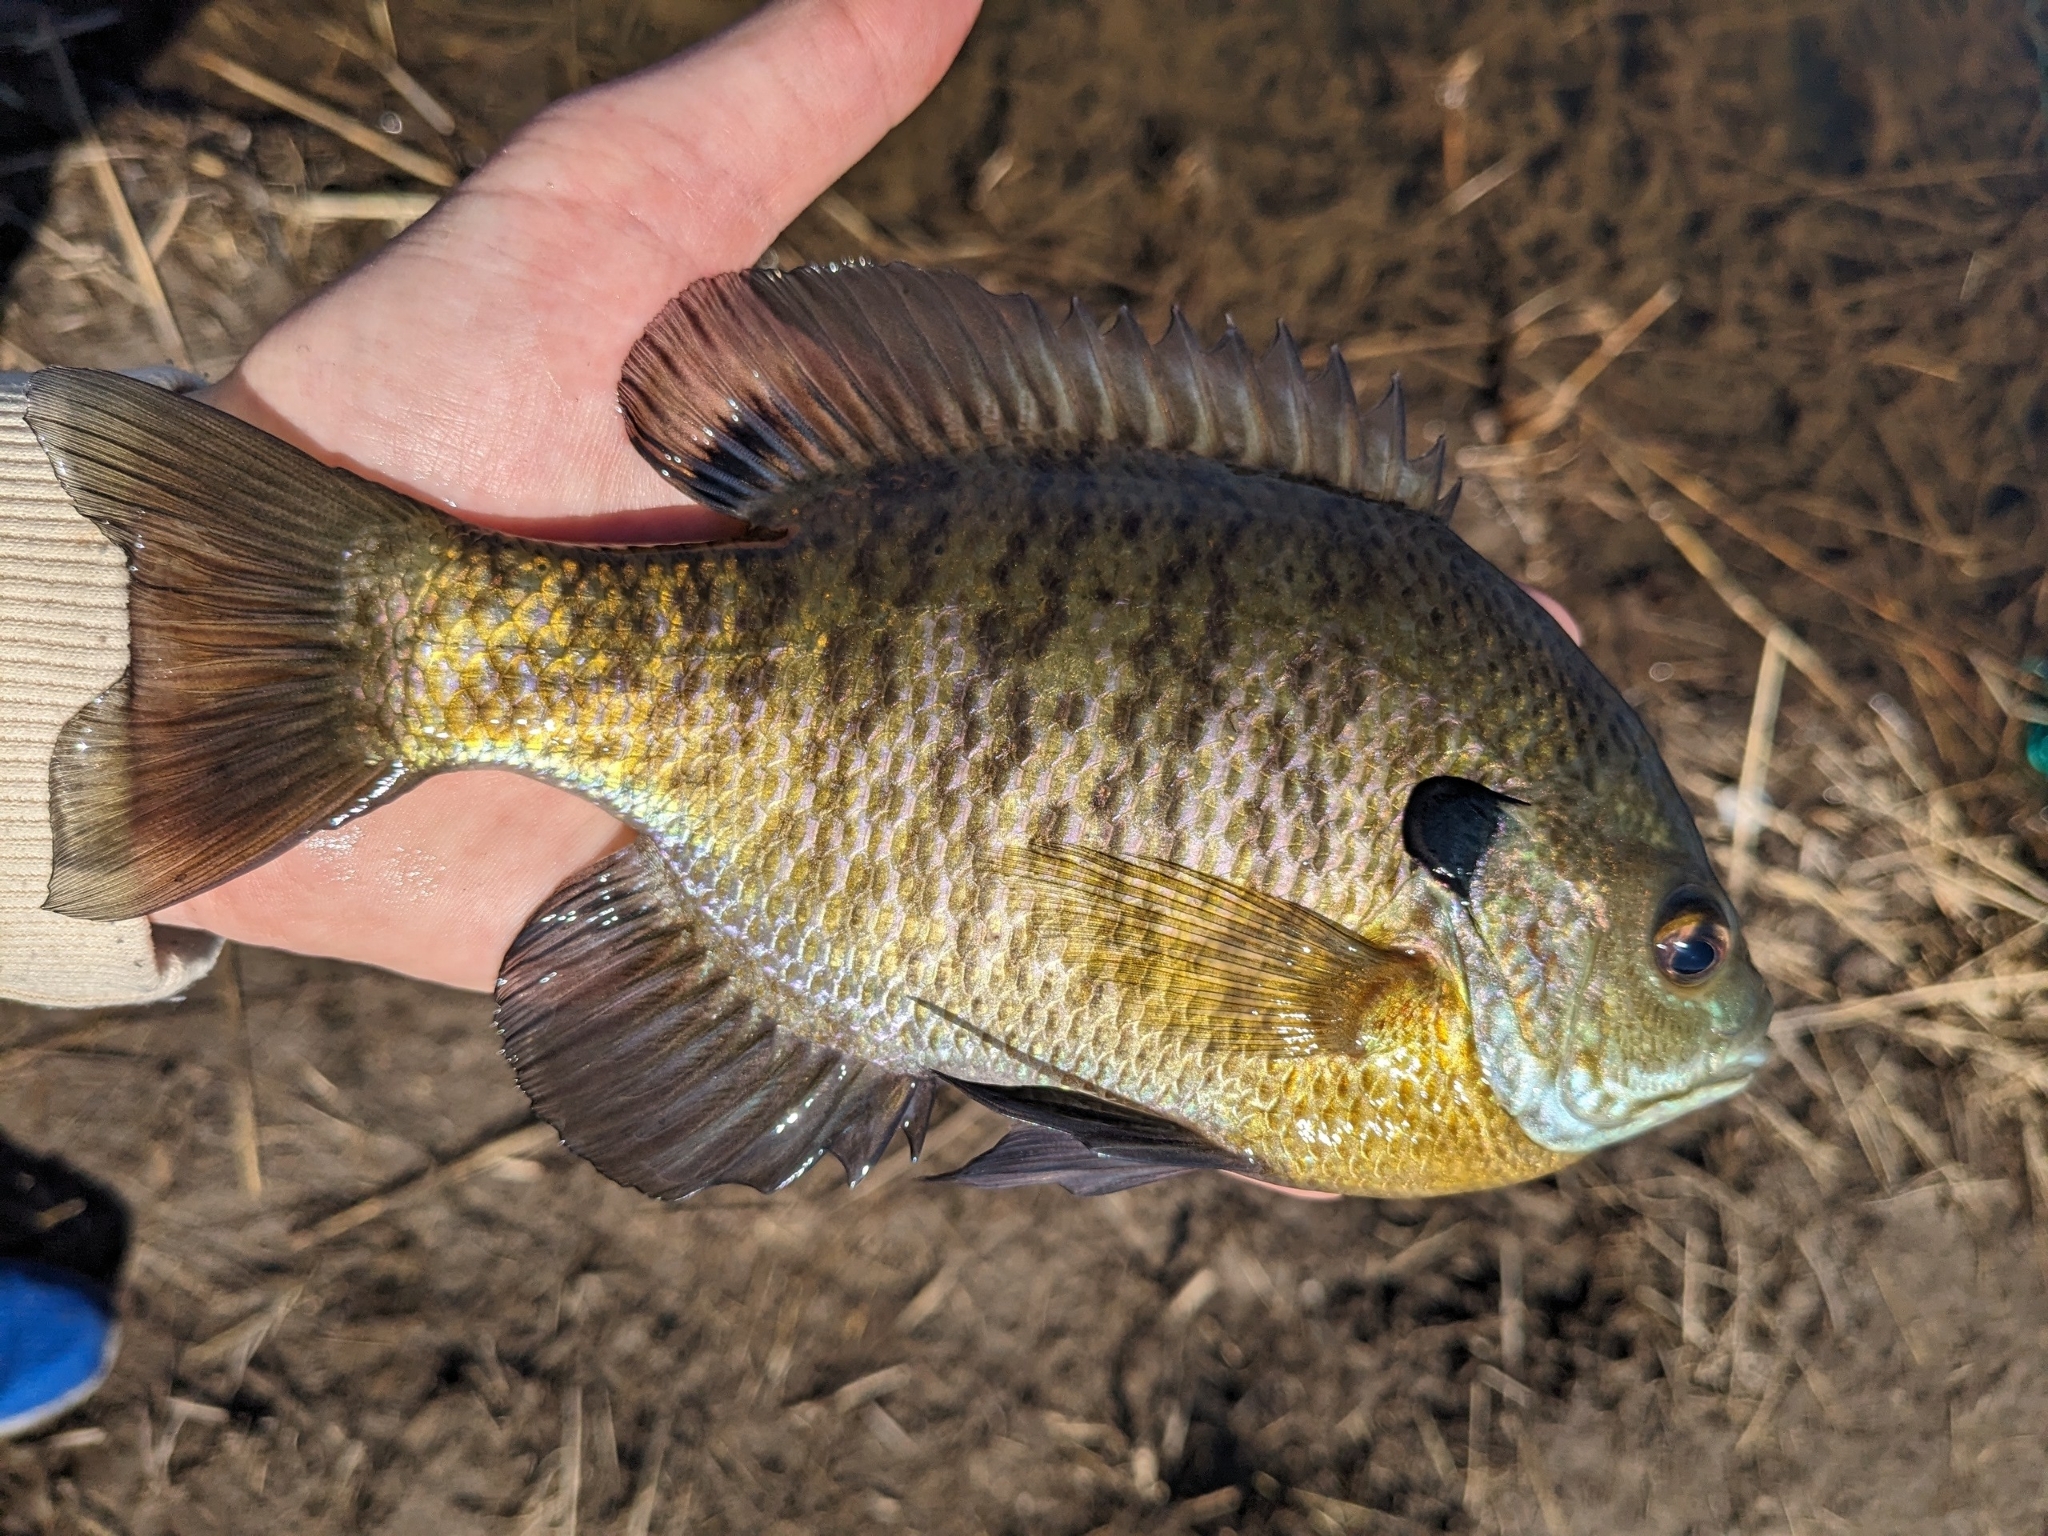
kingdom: Animalia
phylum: Chordata
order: Perciformes
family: Centrarchidae
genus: Lepomis
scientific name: Lepomis macrochirus
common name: Bluegill
